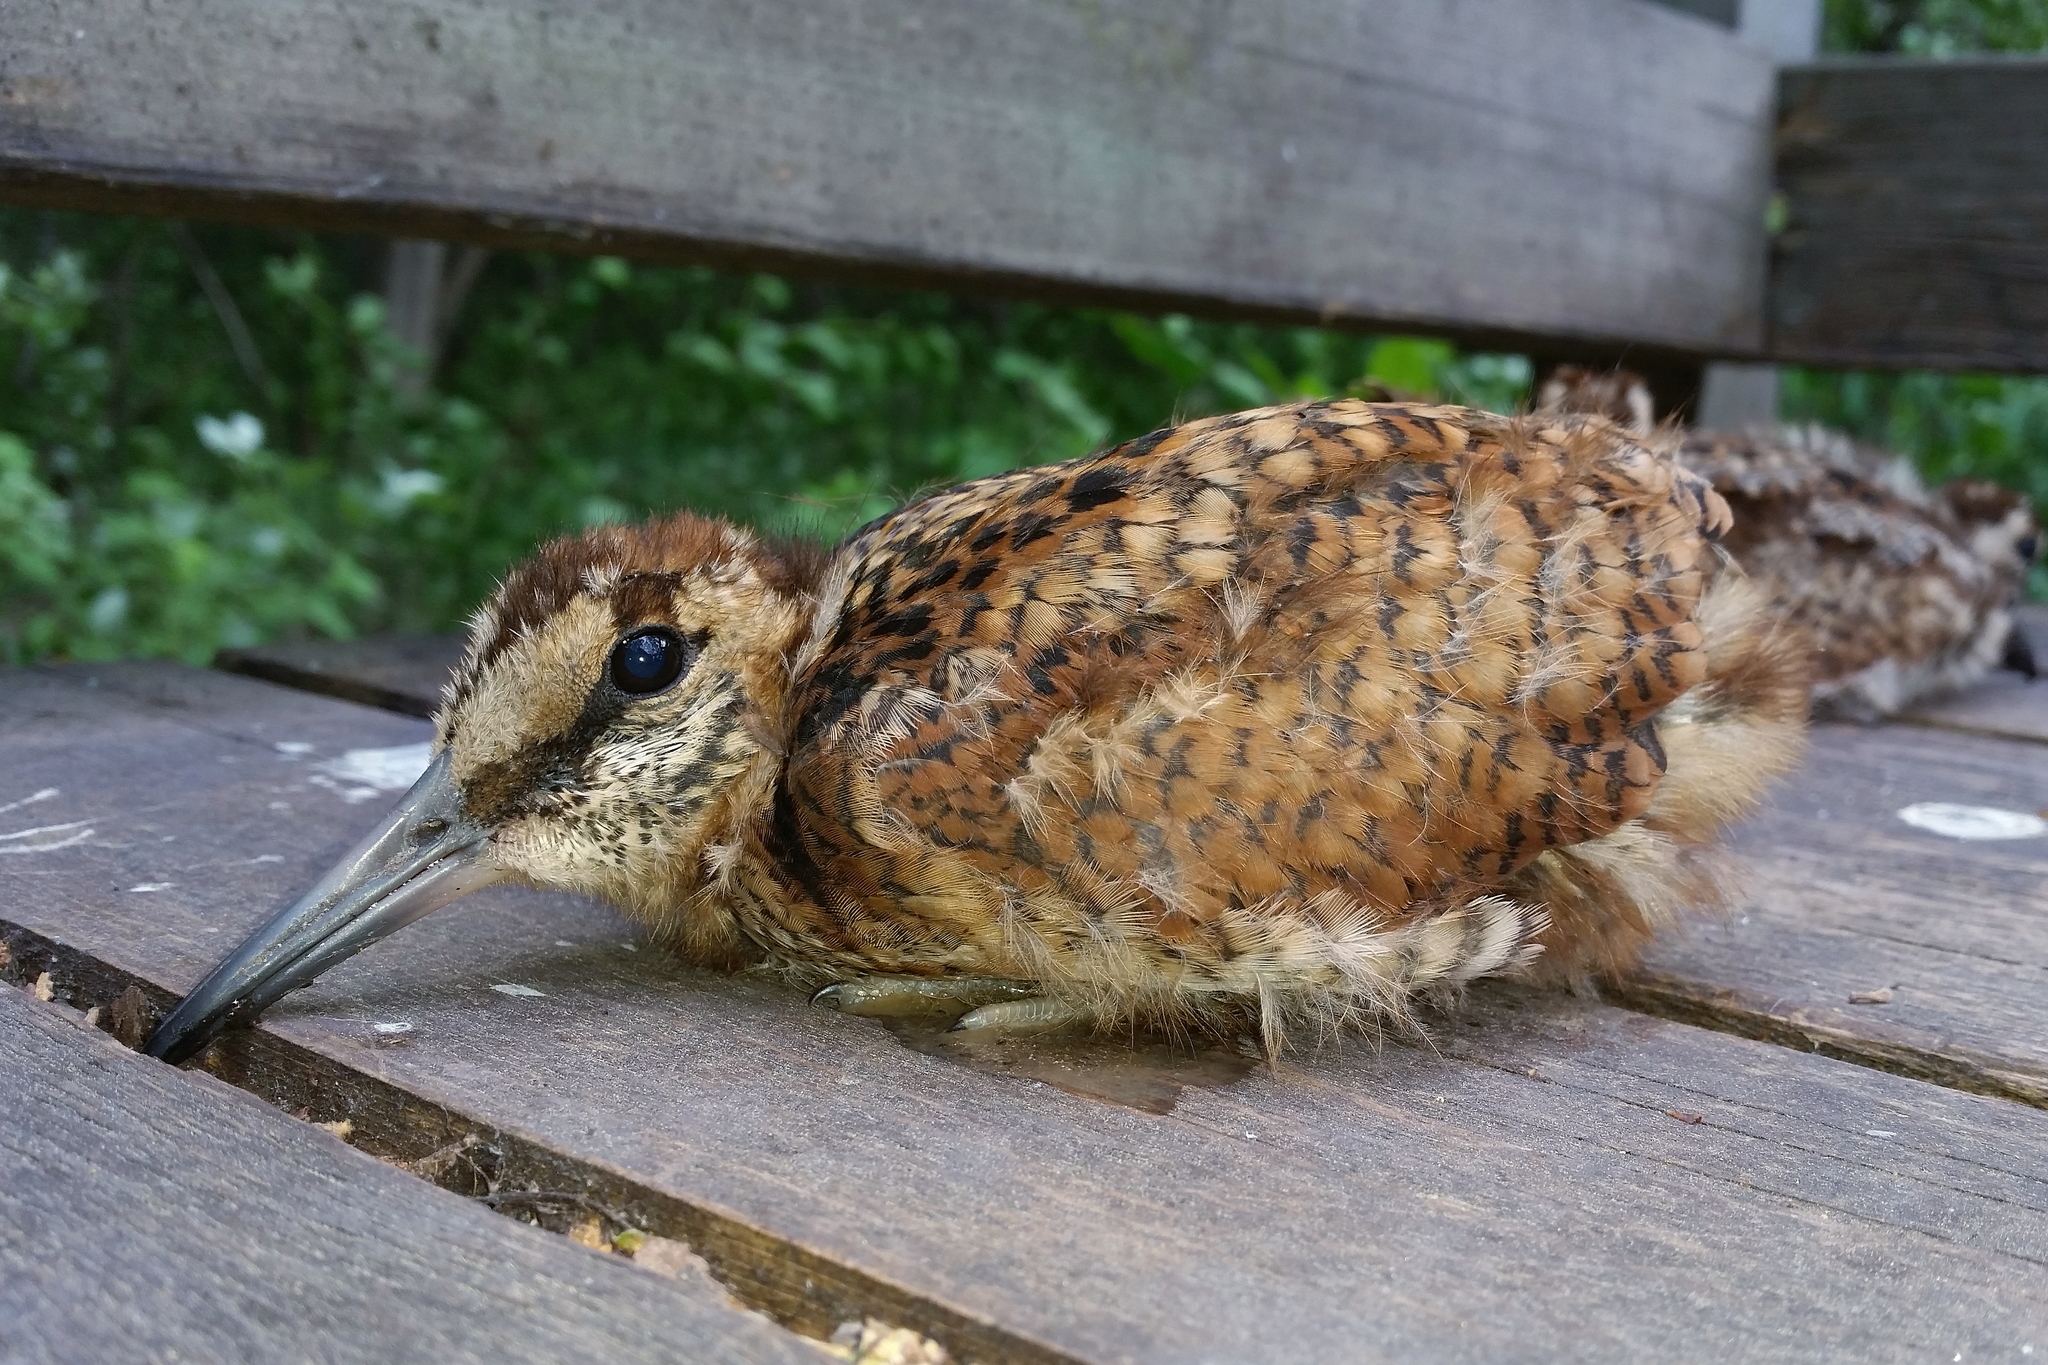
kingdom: Animalia
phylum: Chordata
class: Aves
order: Charadriiformes
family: Scolopacidae
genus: Scolopax
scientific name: Scolopax rusticola
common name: Eurasian woodcock
